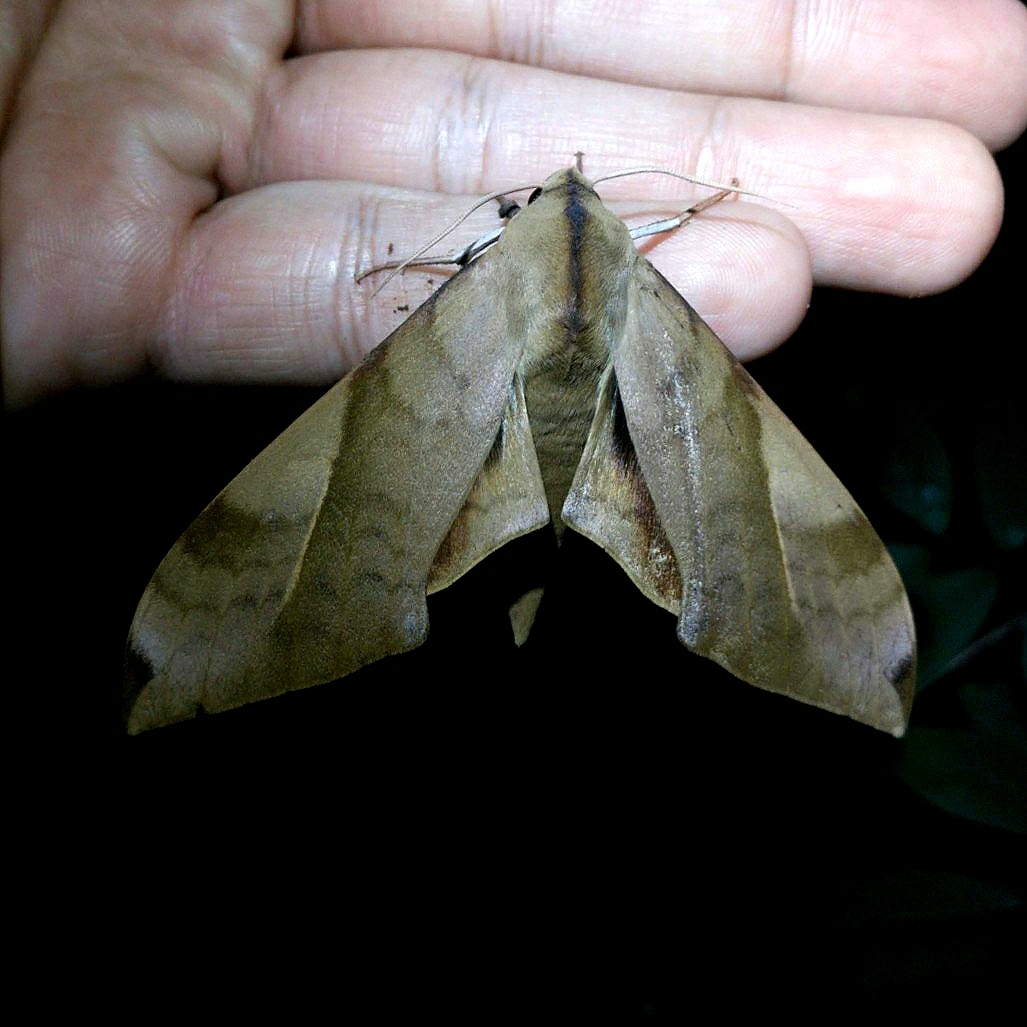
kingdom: Animalia
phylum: Arthropoda
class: Insecta
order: Lepidoptera
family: Sphingidae
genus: Clanis
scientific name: Clanis bilineata
